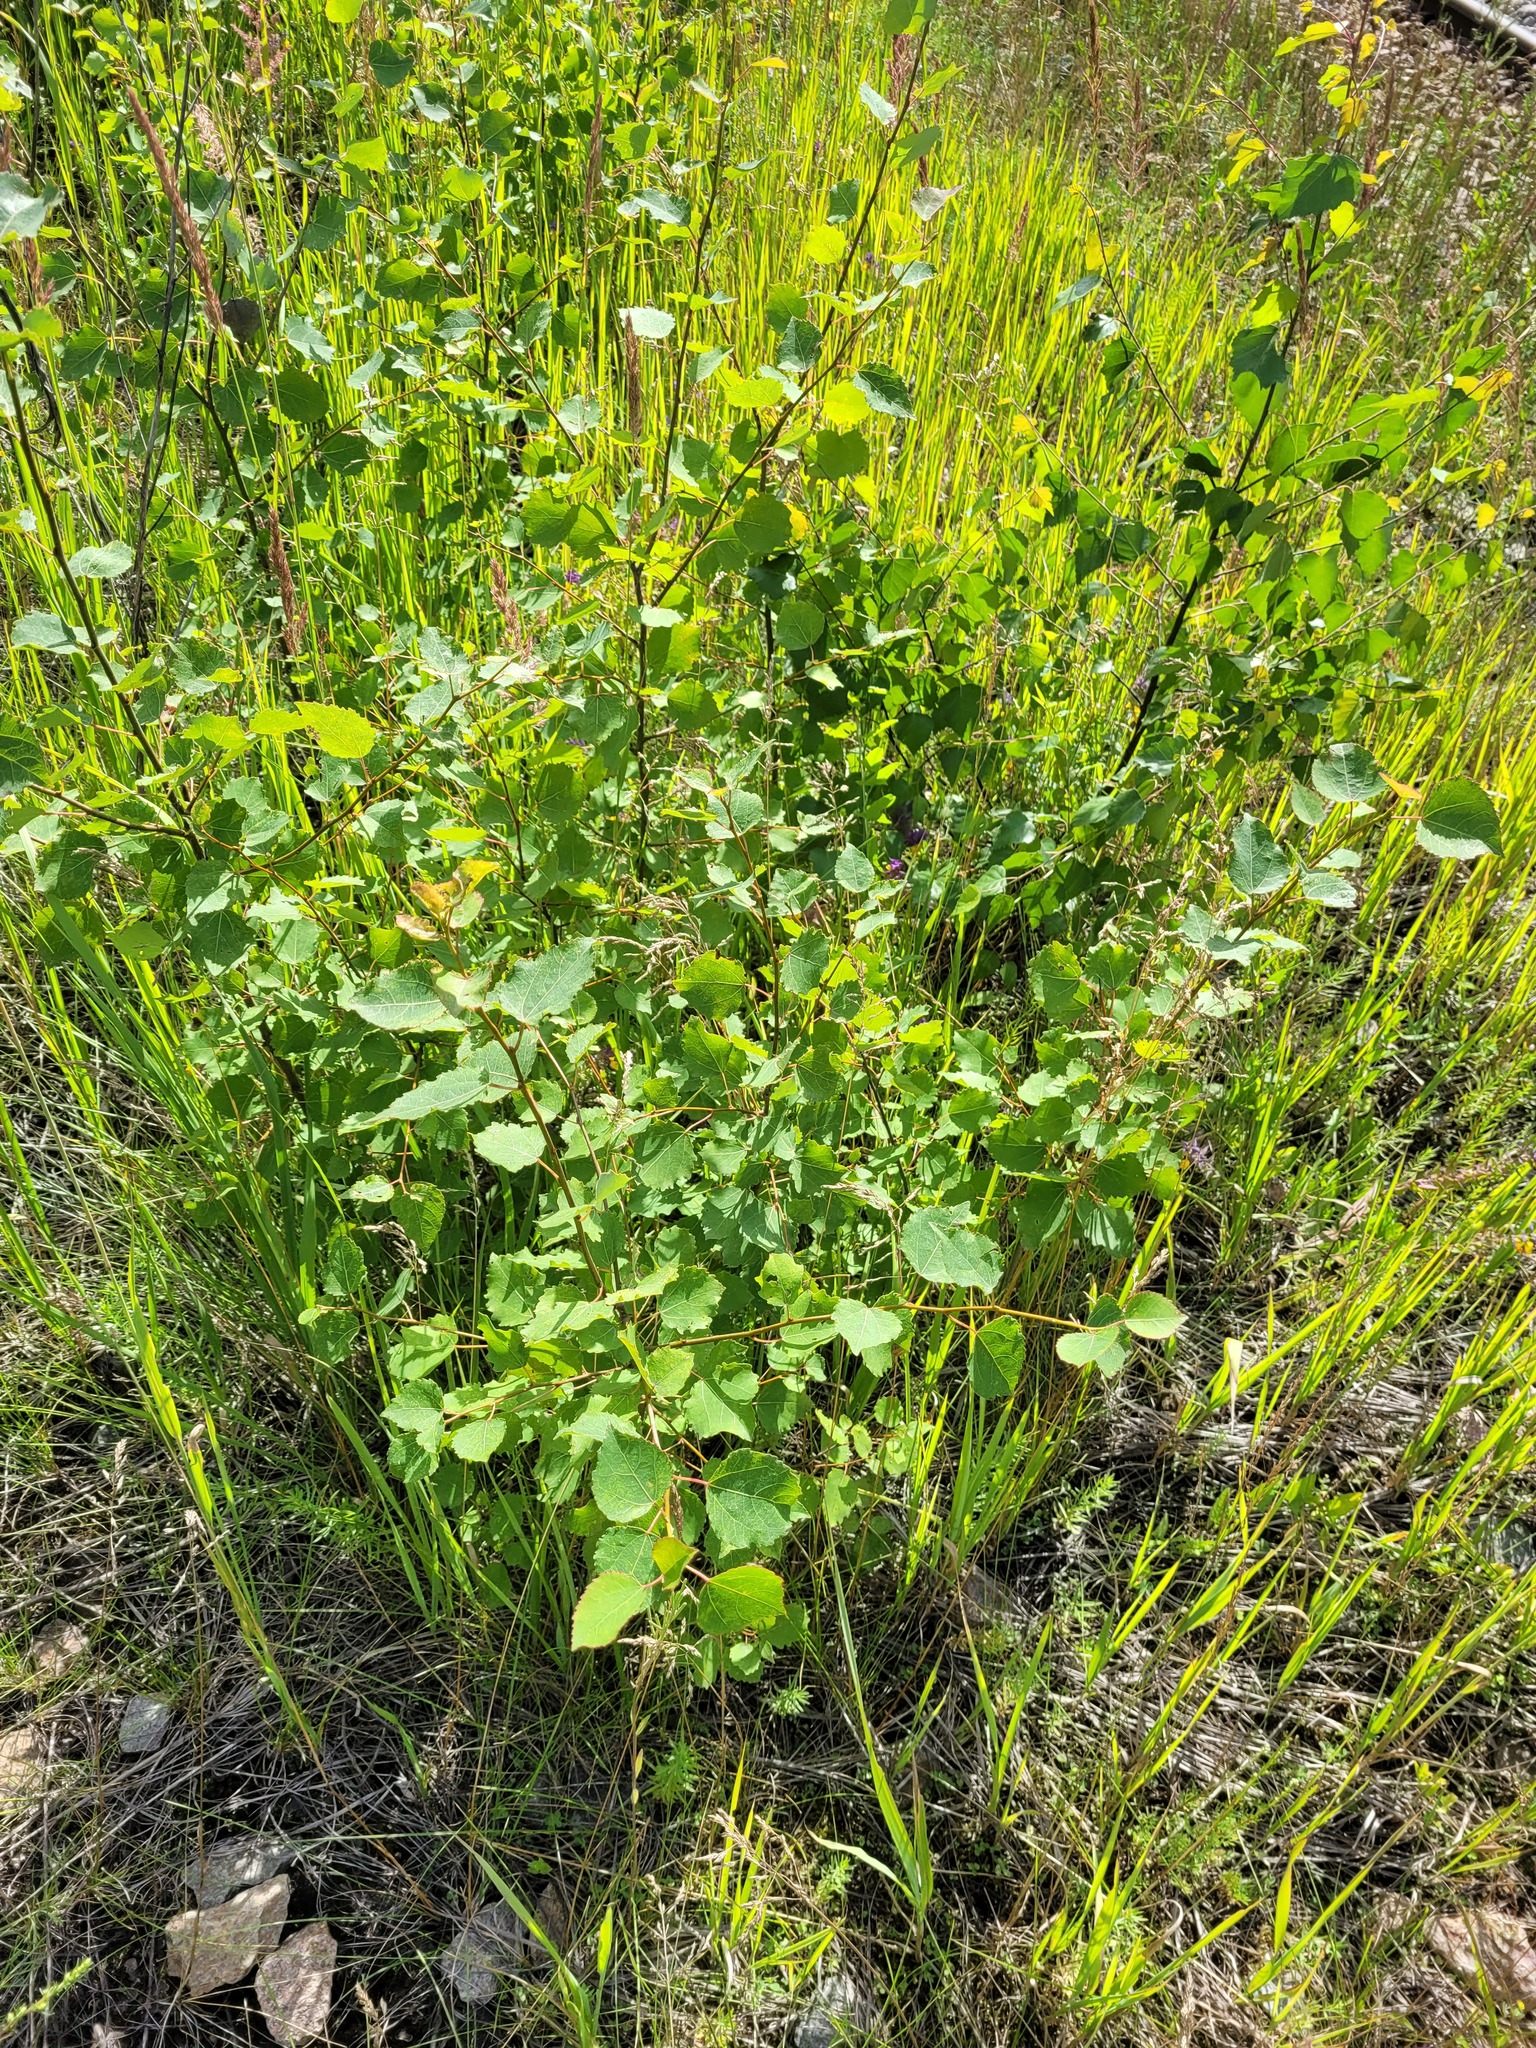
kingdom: Plantae
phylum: Tracheophyta
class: Magnoliopsida
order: Malpighiales
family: Salicaceae
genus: Populus
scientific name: Populus tremula
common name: European aspen
